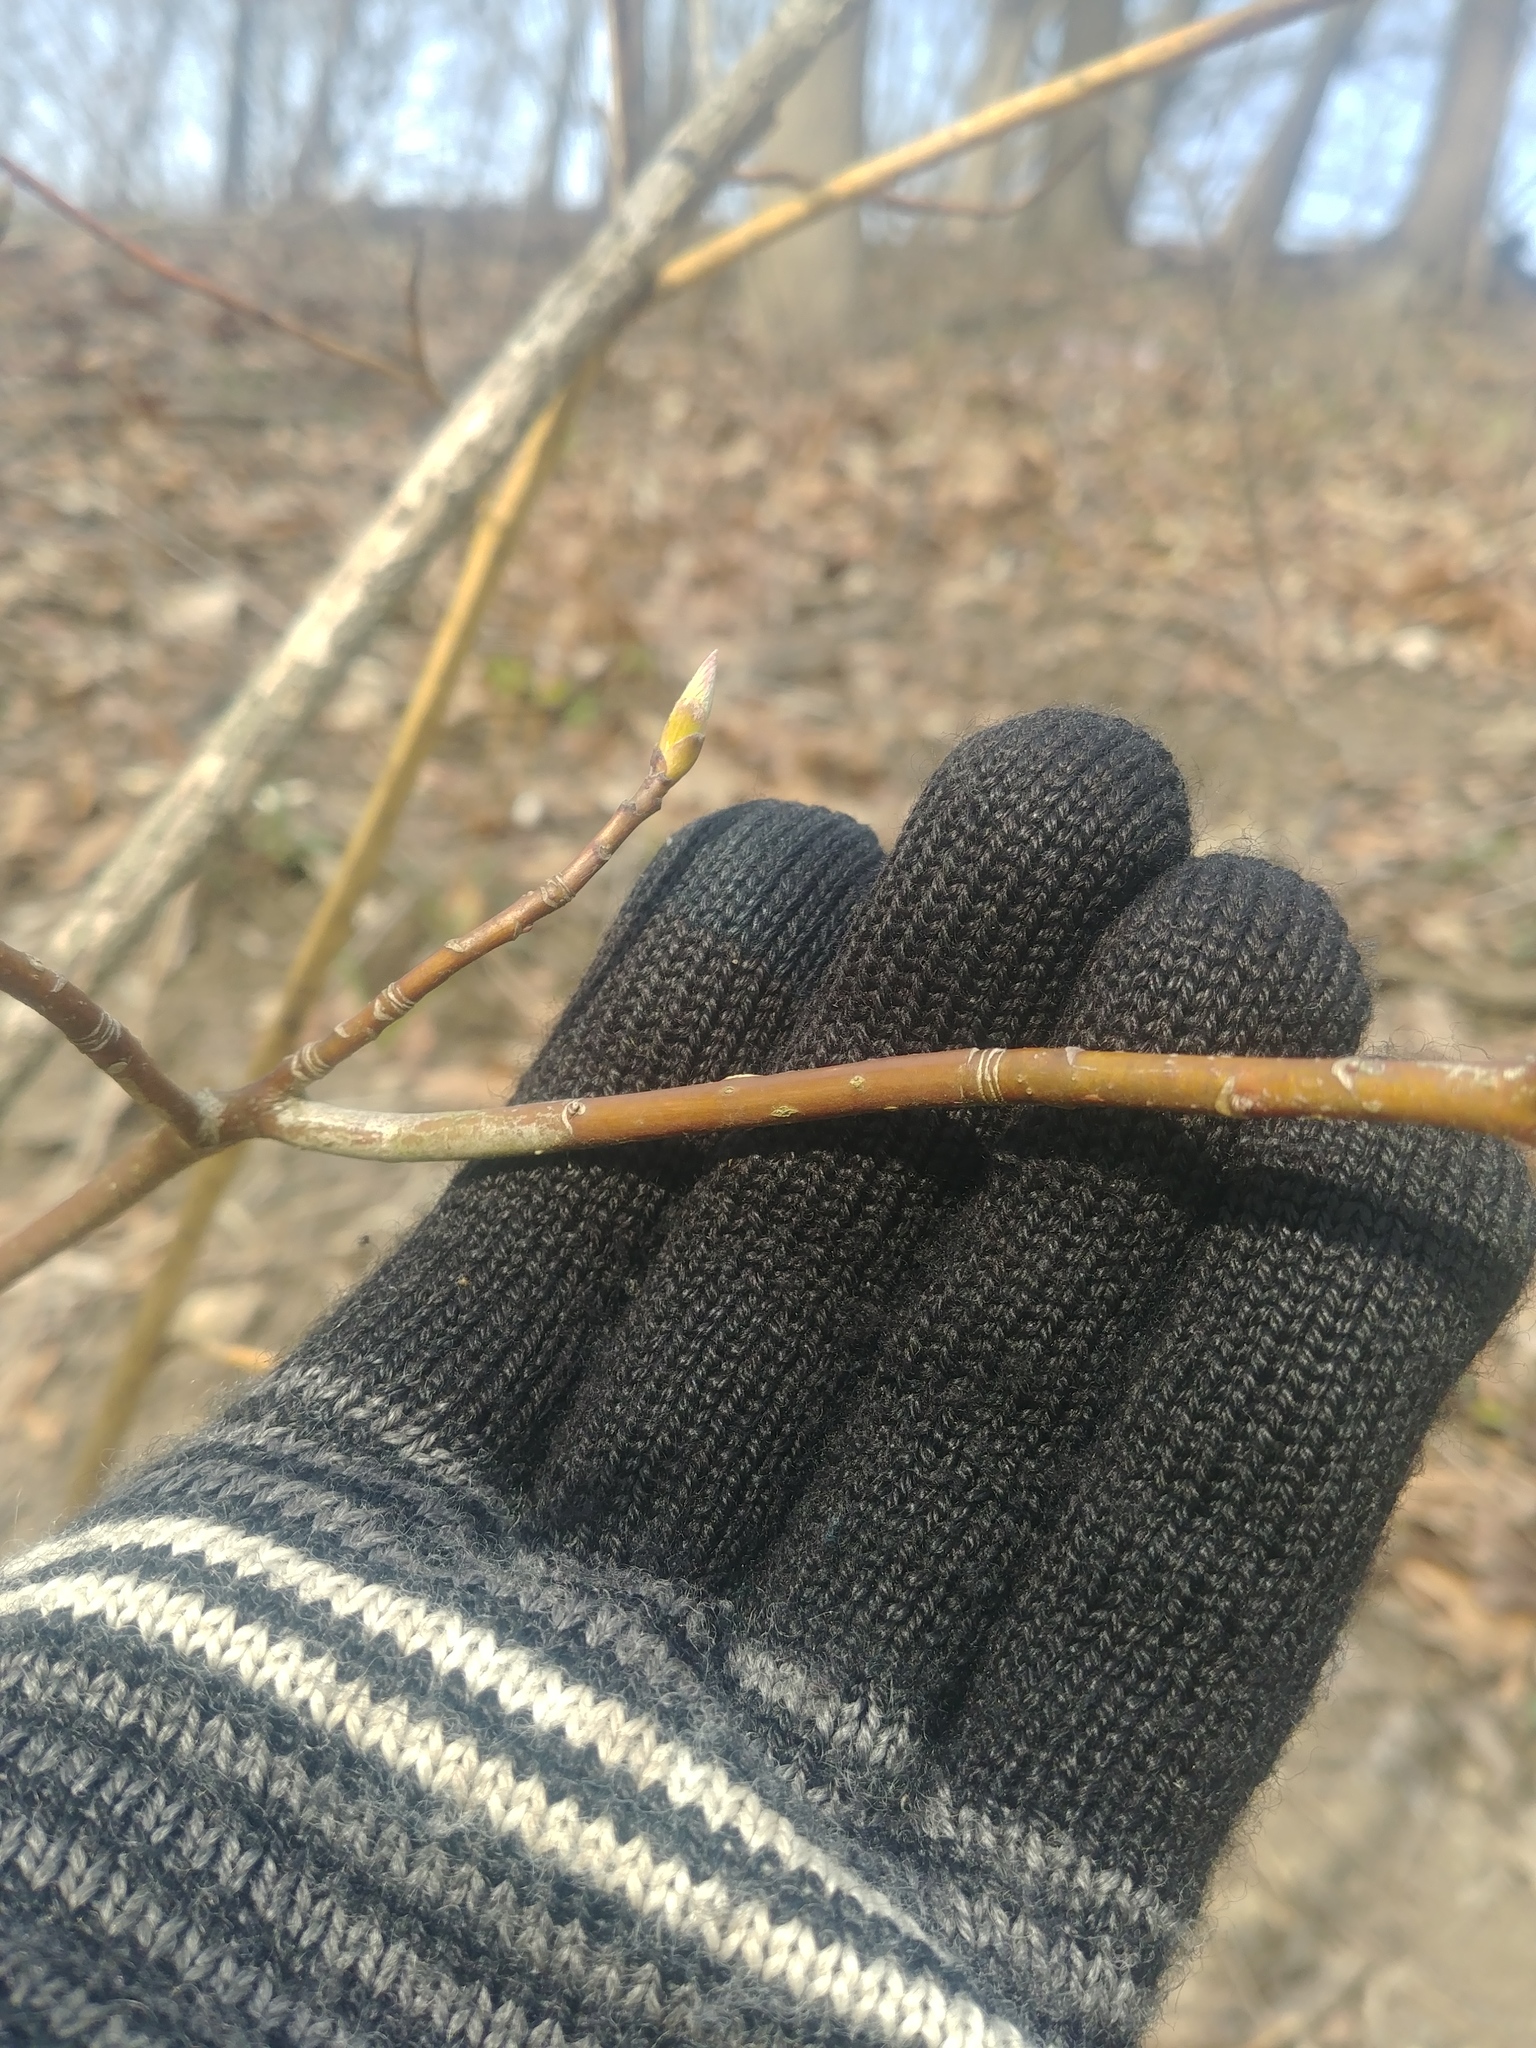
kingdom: Plantae
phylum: Tracheophyta
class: Magnoliopsida
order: Cornales
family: Cornaceae
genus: Cornus
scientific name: Cornus alternifolia
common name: Pagoda dogwood
